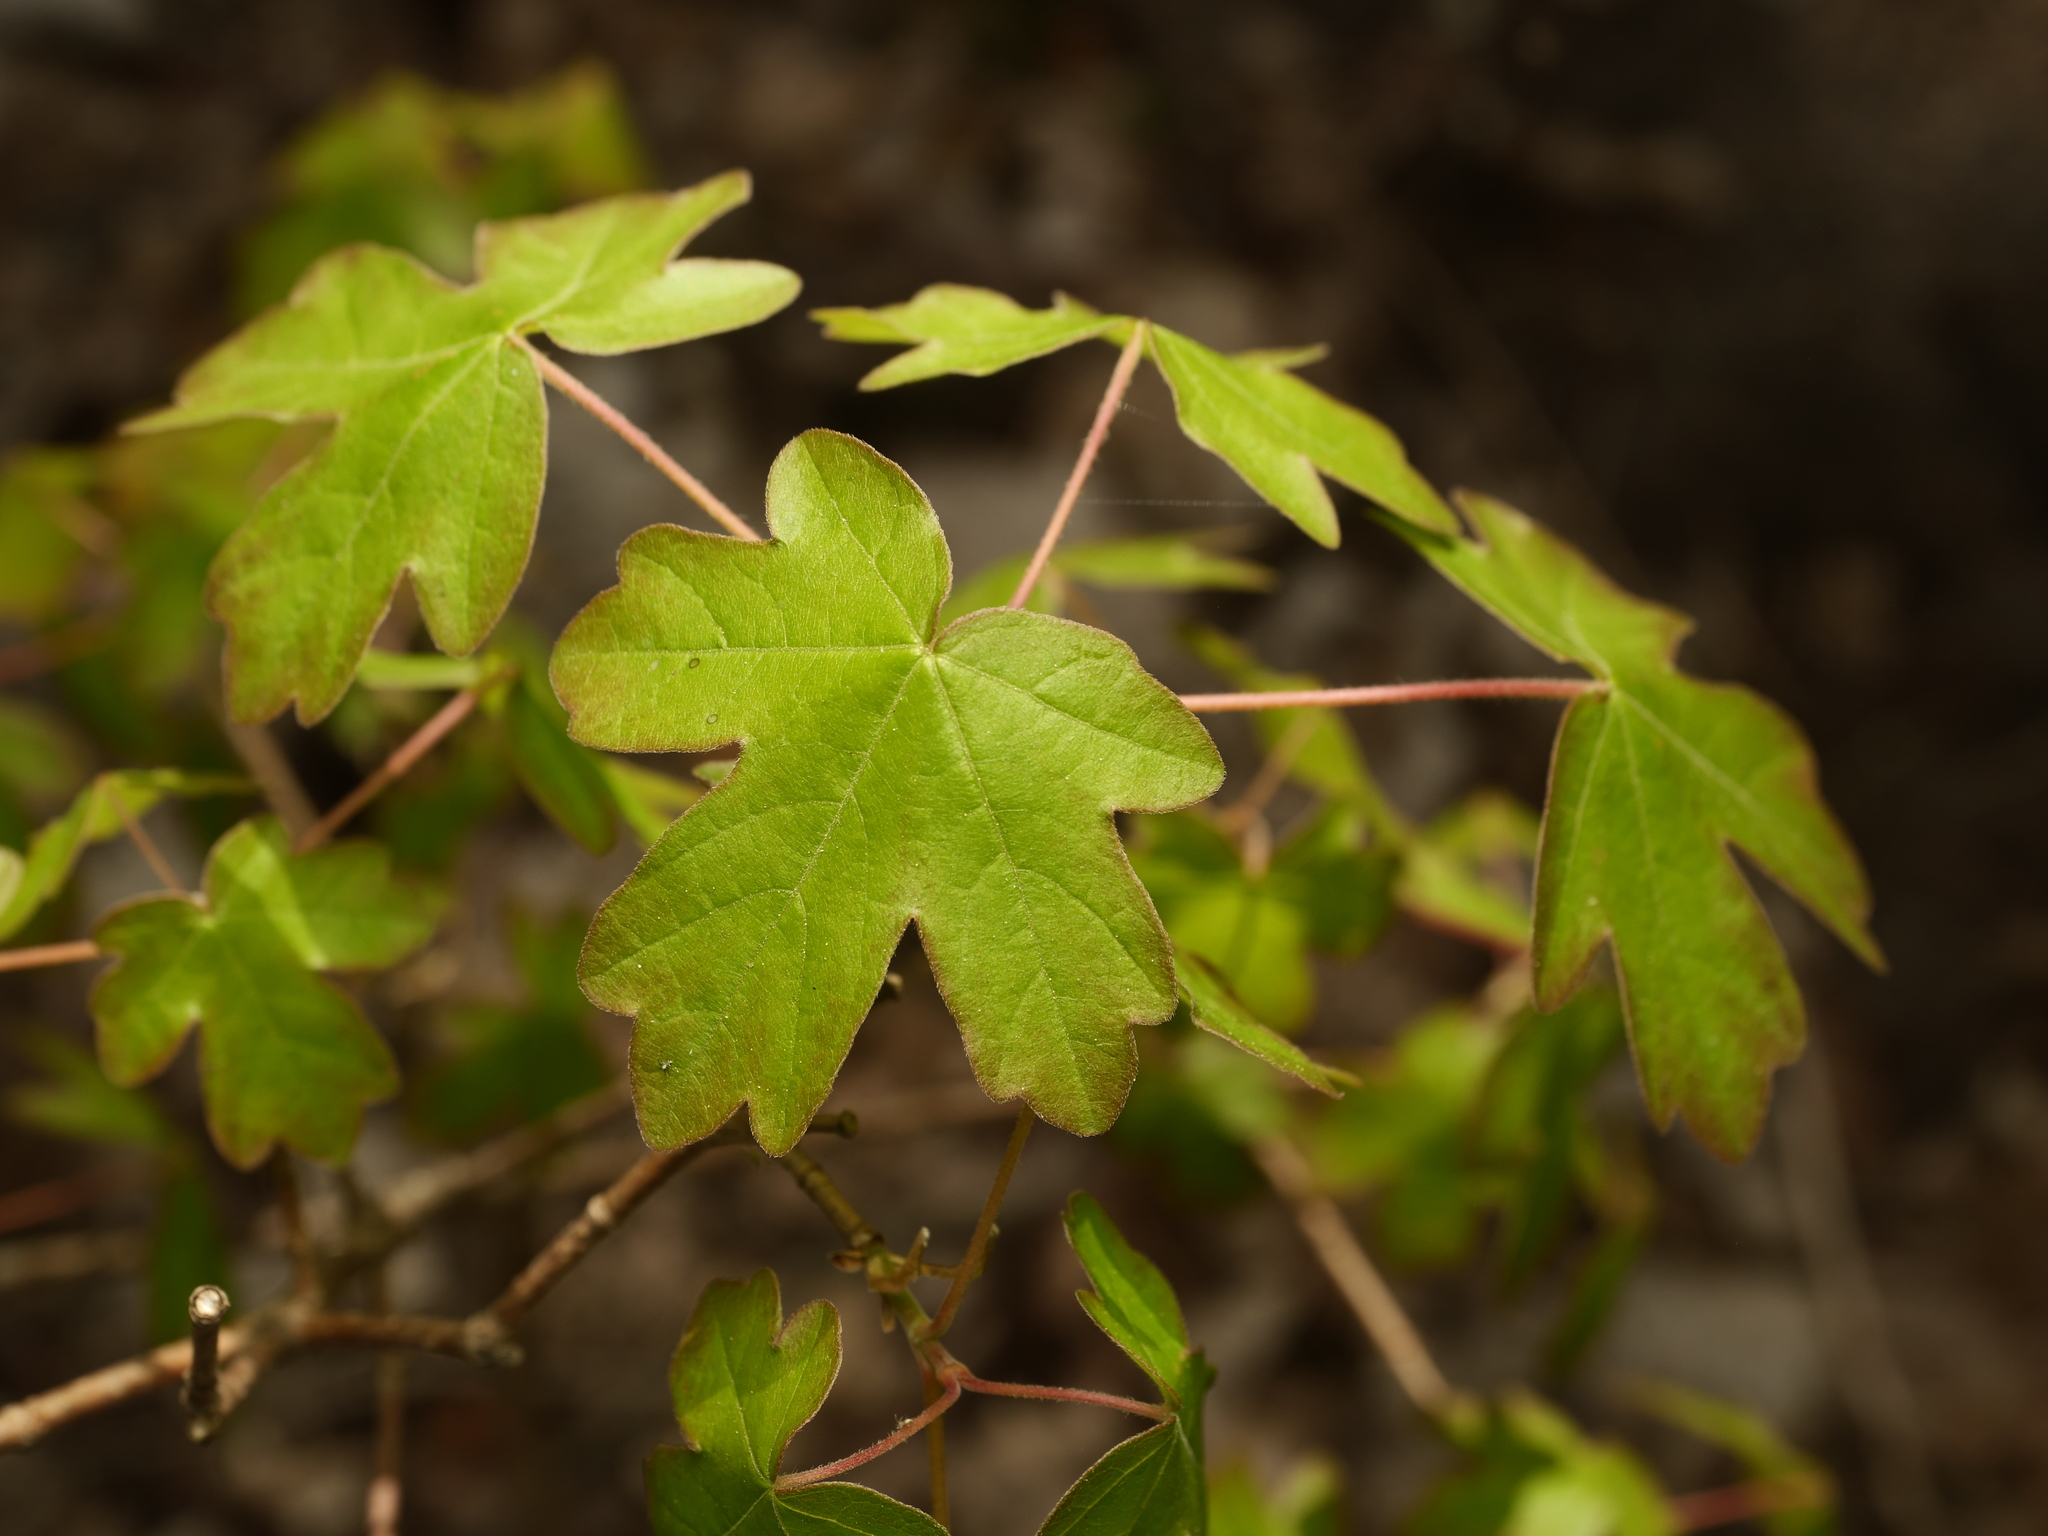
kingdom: Plantae
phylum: Tracheophyta
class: Magnoliopsida
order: Sapindales
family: Sapindaceae
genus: Acer
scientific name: Acer campestre
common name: Field maple
